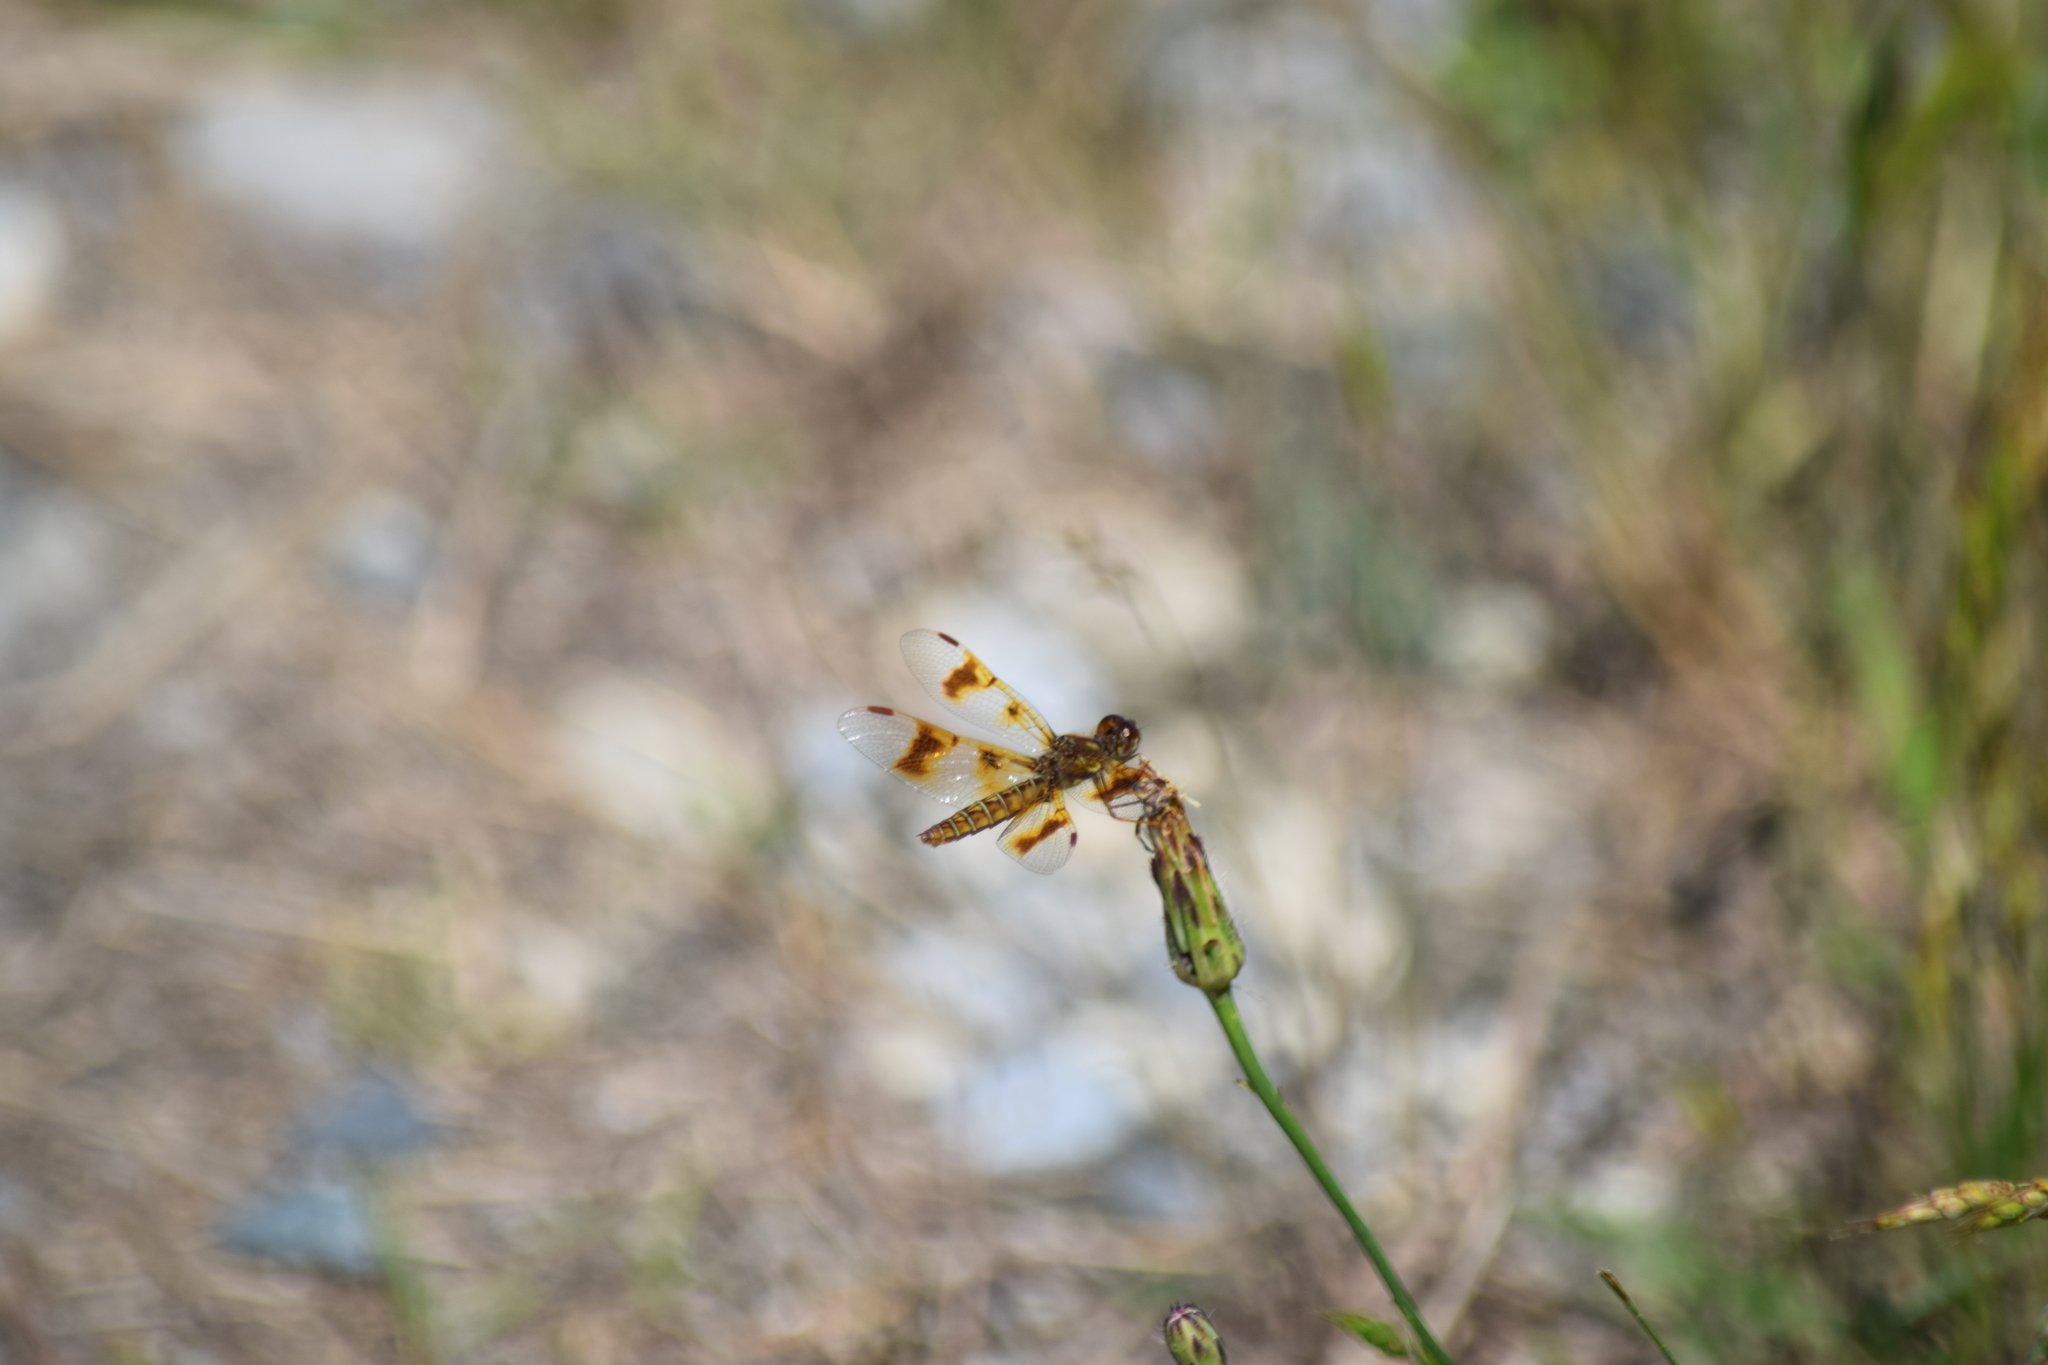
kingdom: Animalia
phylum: Arthropoda
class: Insecta
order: Odonata
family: Libellulidae
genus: Perithemis
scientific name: Perithemis tenera
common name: Eastern amberwing
